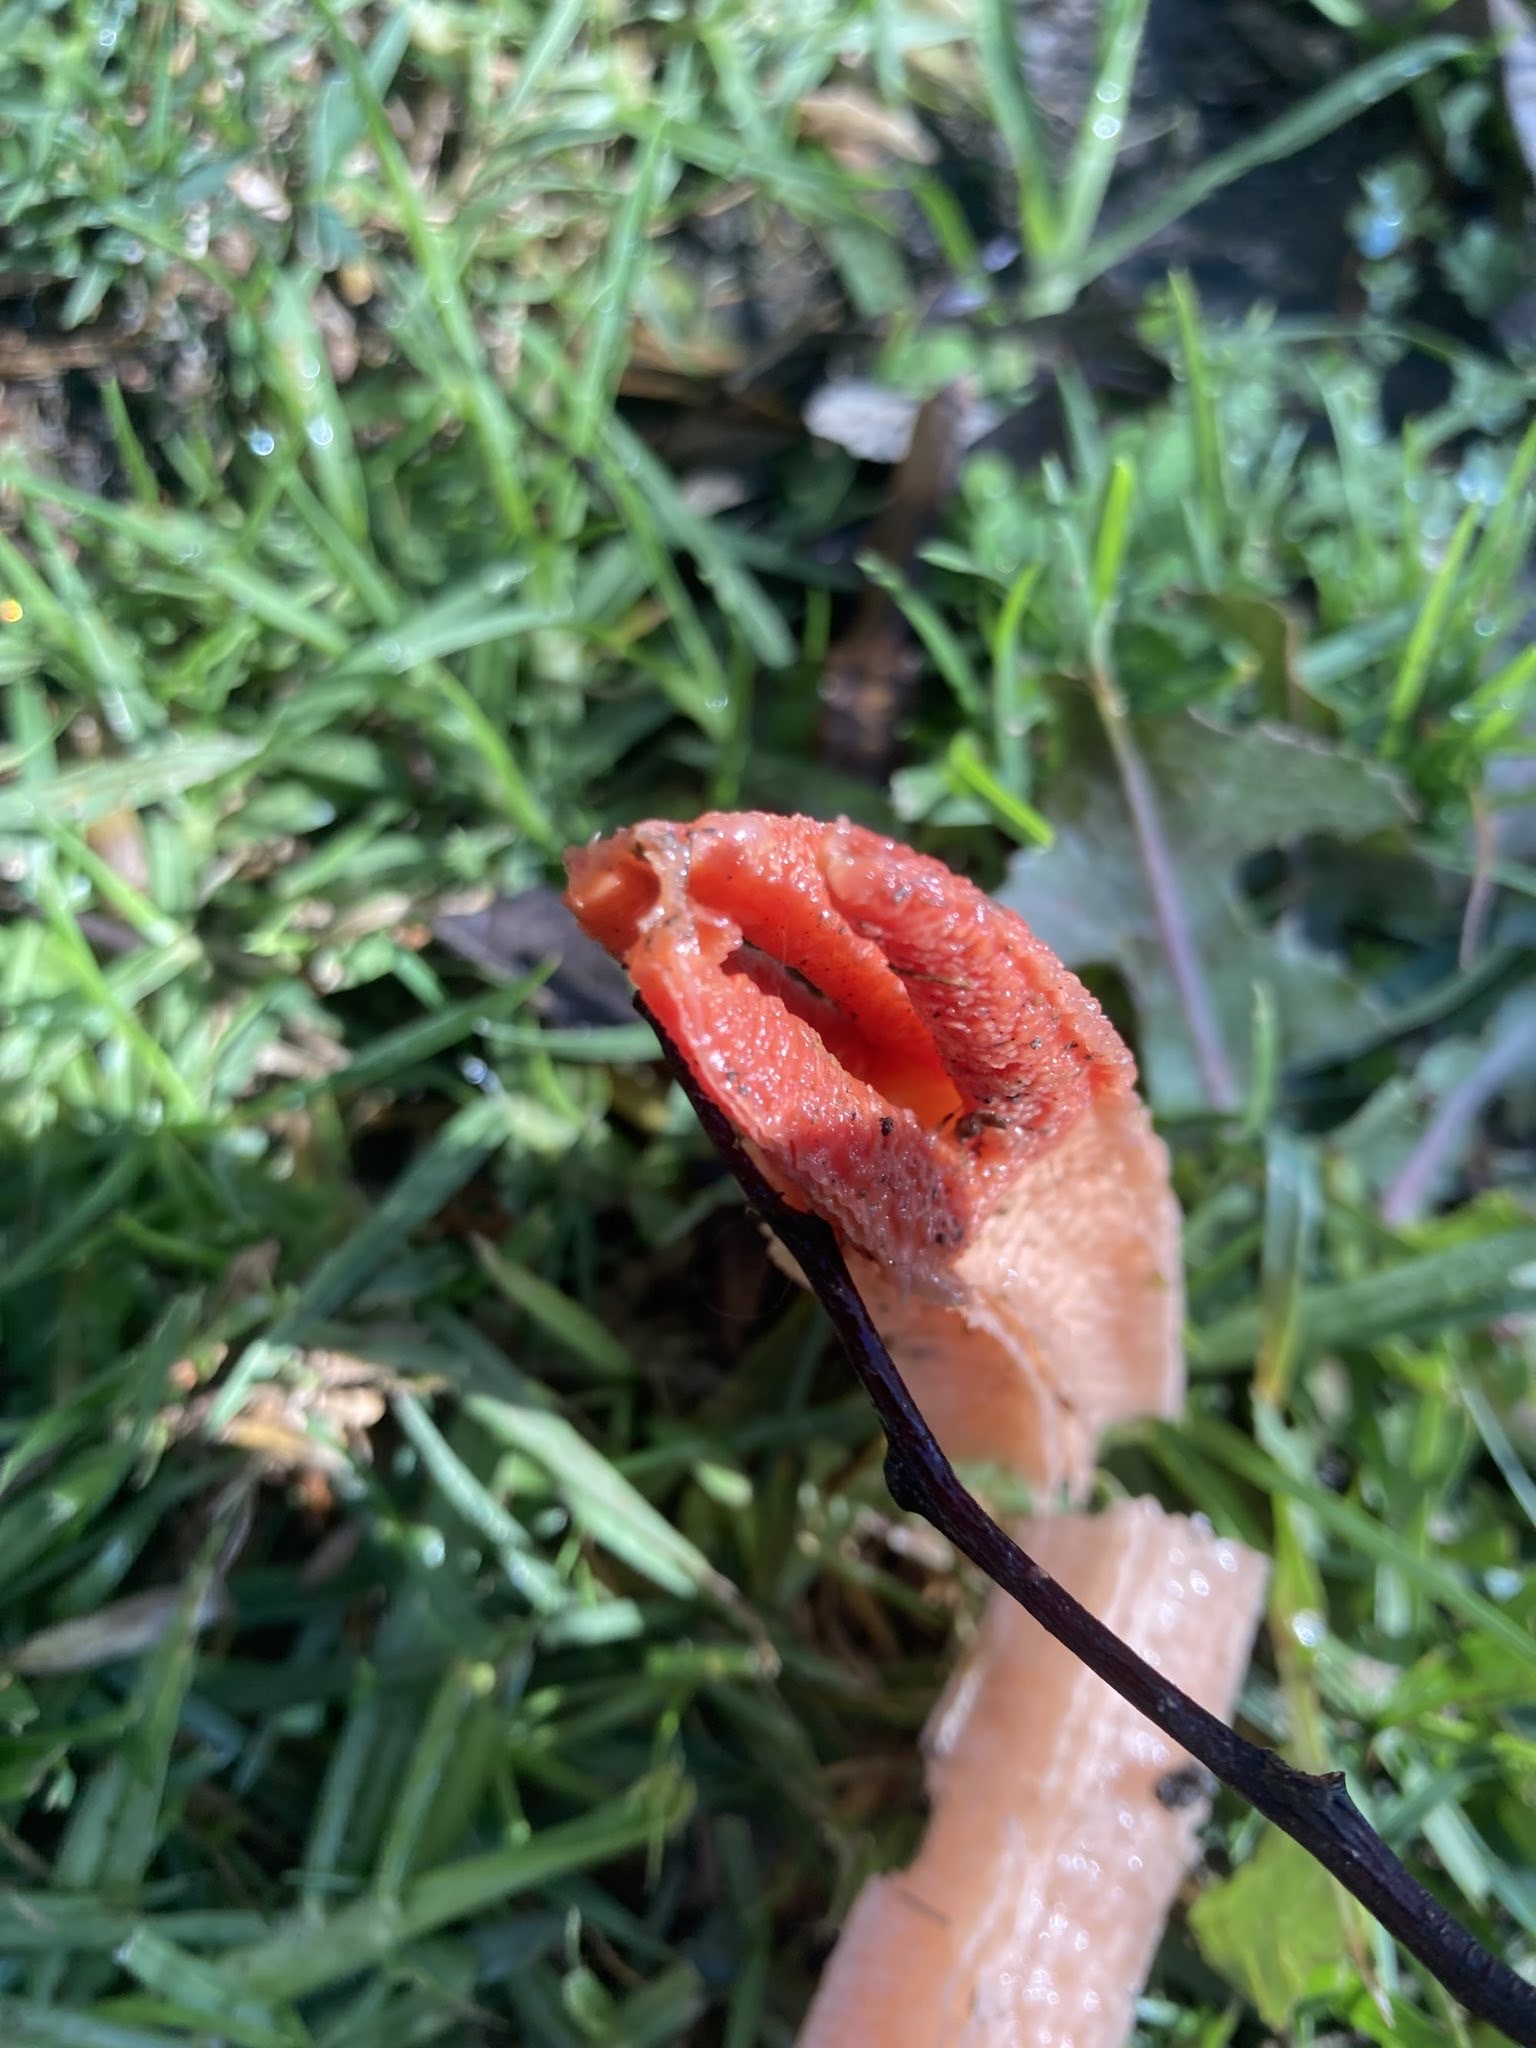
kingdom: Fungi
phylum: Basidiomycota
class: Agaricomycetes
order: Phallales
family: Phallaceae
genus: Lysurus
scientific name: Lysurus mokusin
